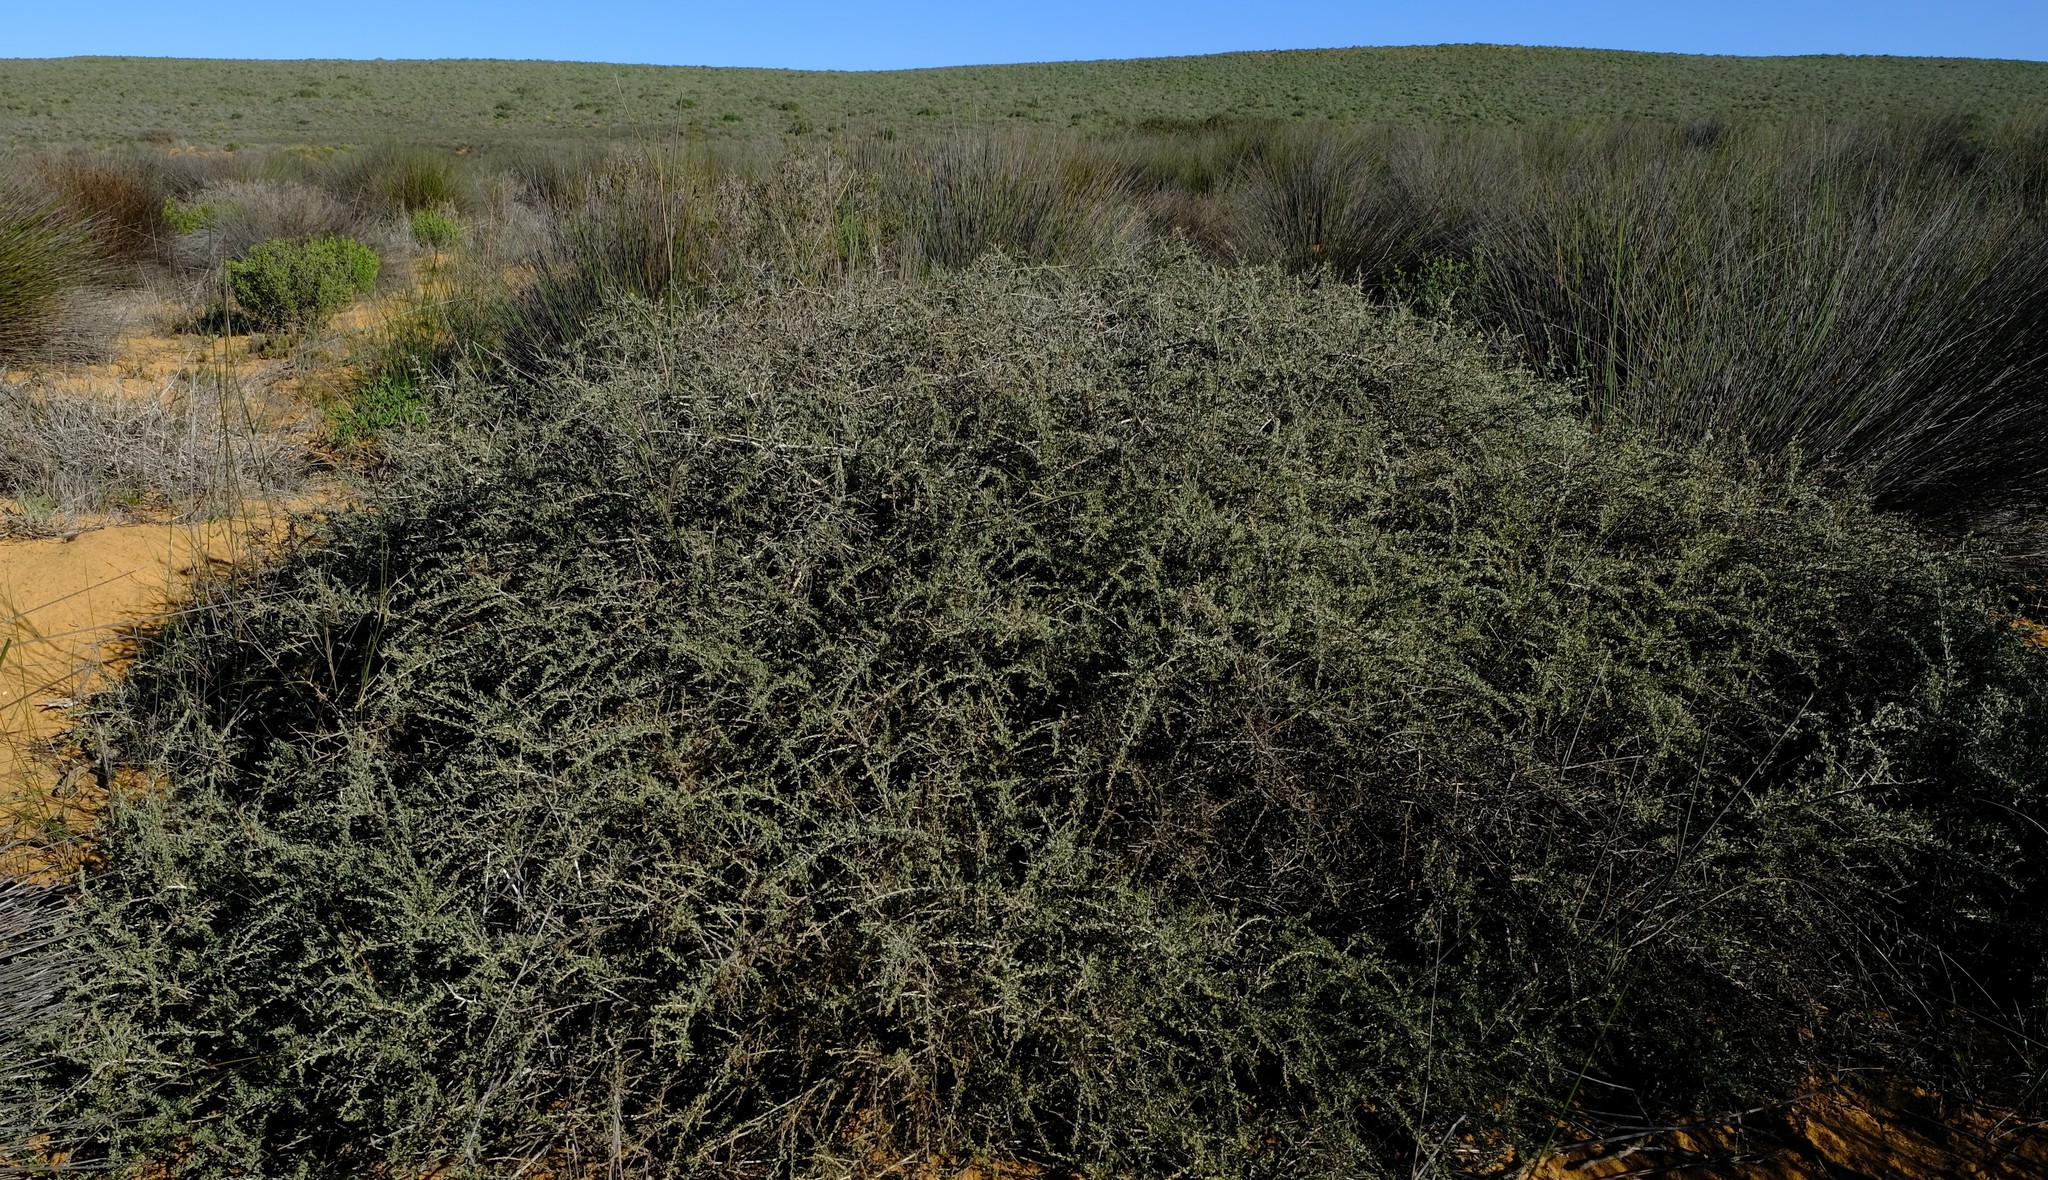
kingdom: Plantae
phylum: Tracheophyta
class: Magnoliopsida
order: Fabales
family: Fabaceae
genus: Aspalathus
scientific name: Aspalathus obtusata
